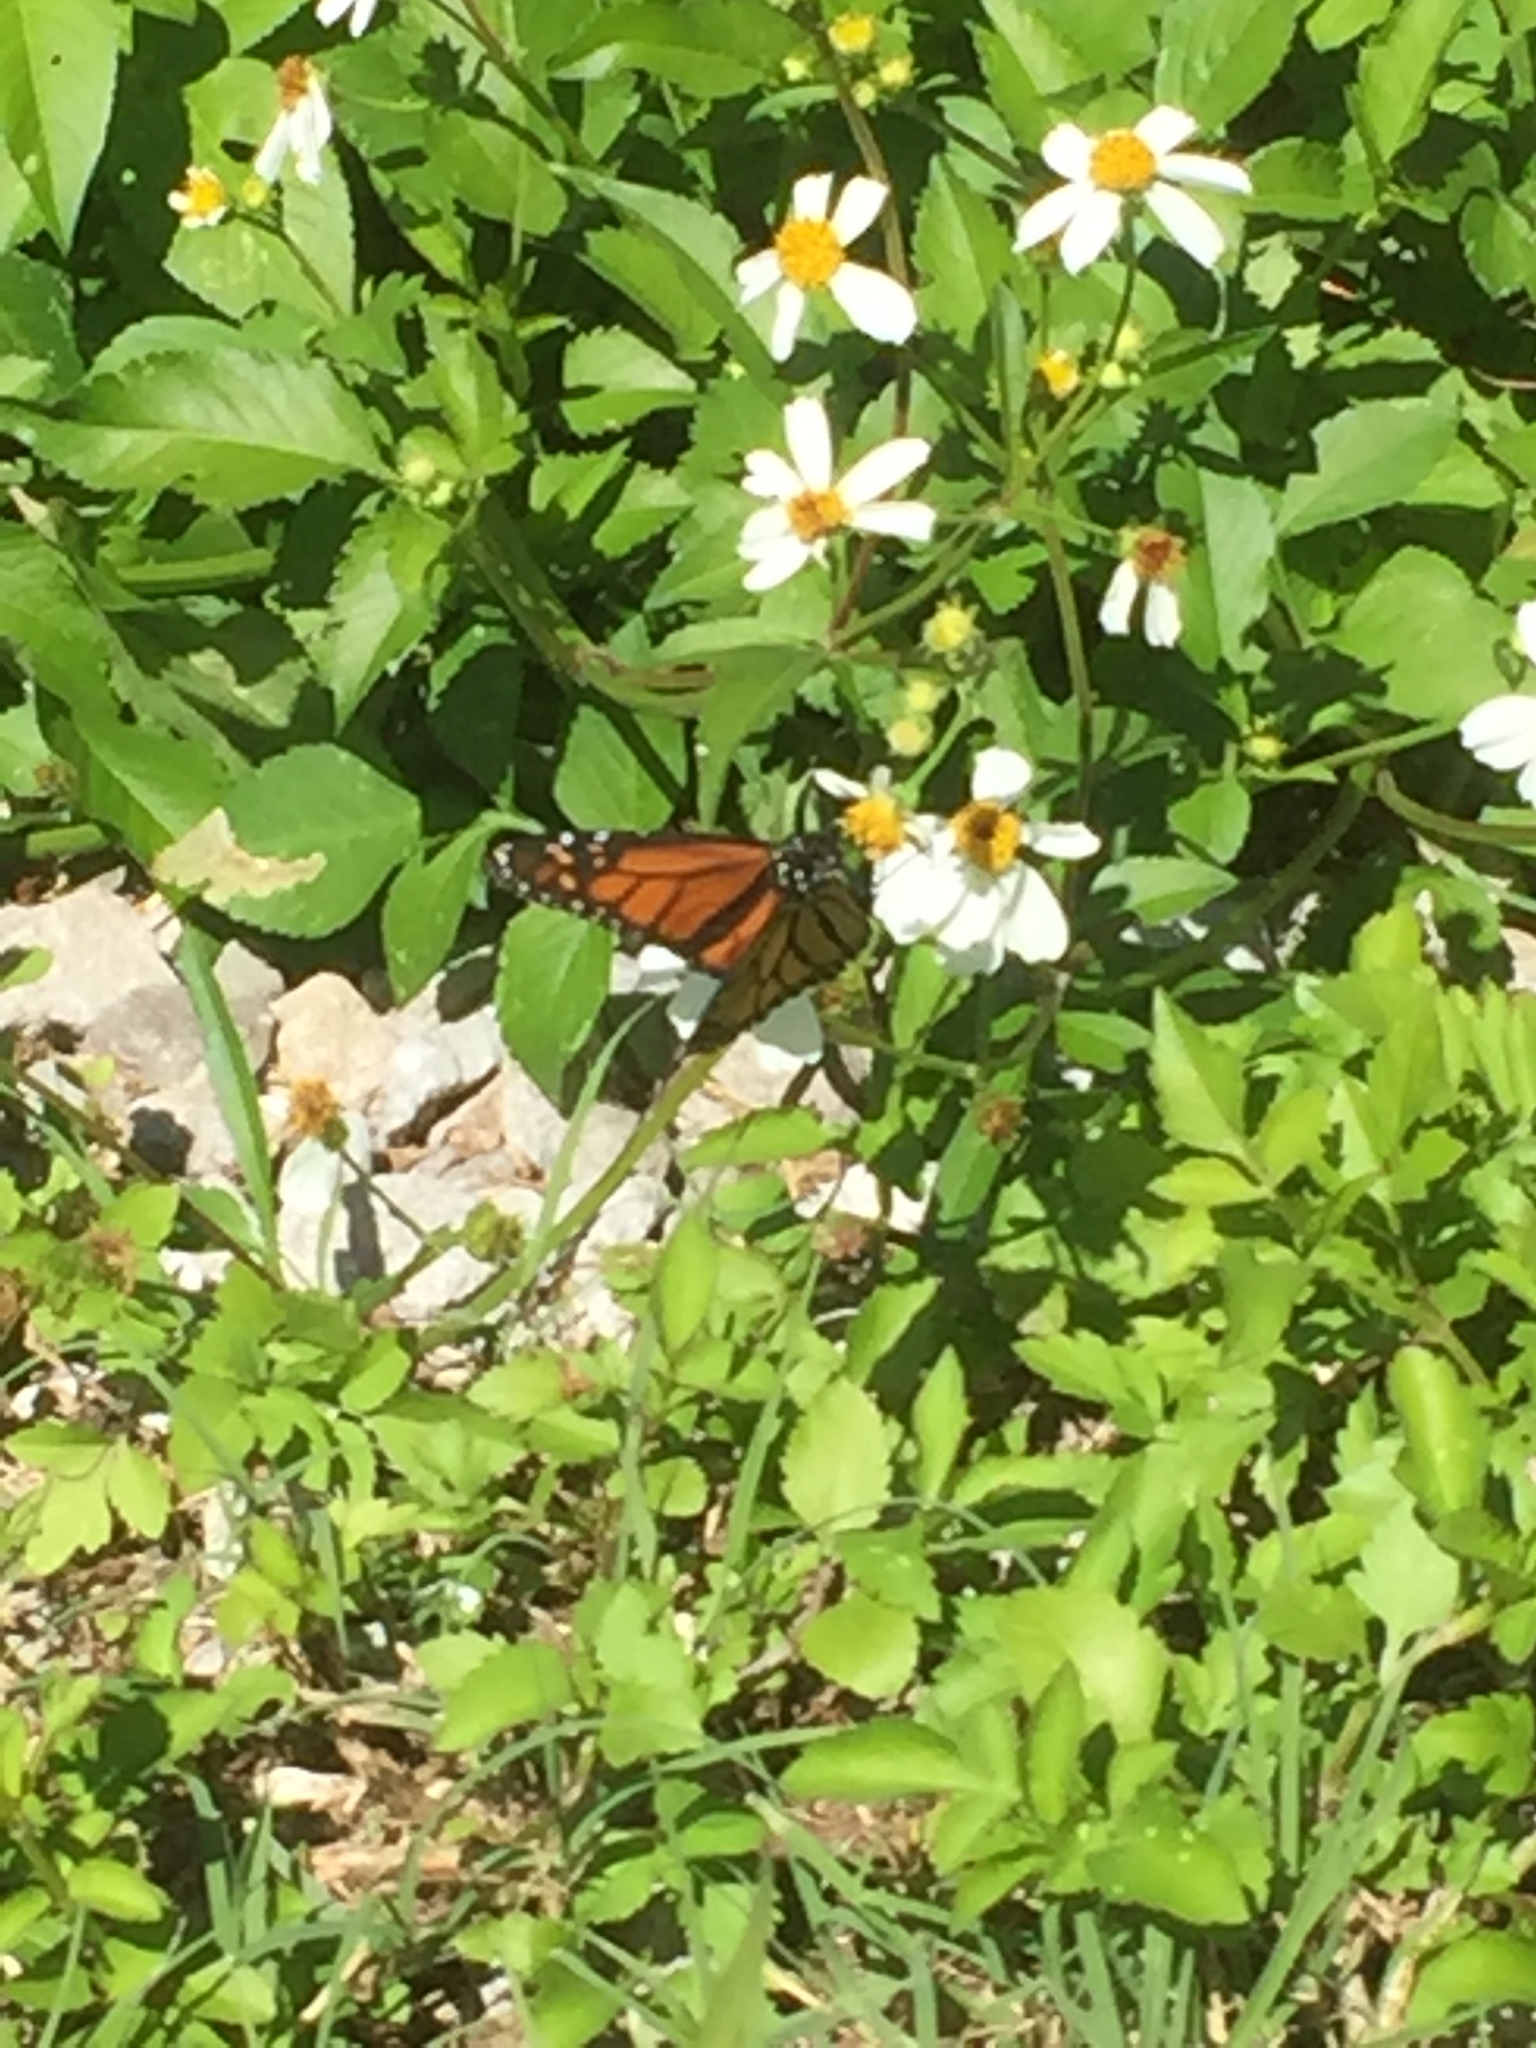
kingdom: Animalia
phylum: Arthropoda
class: Insecta
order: Lepidoptera
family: Nymphalidae
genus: Danaus
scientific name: Danaus plexippus
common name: Monarch
